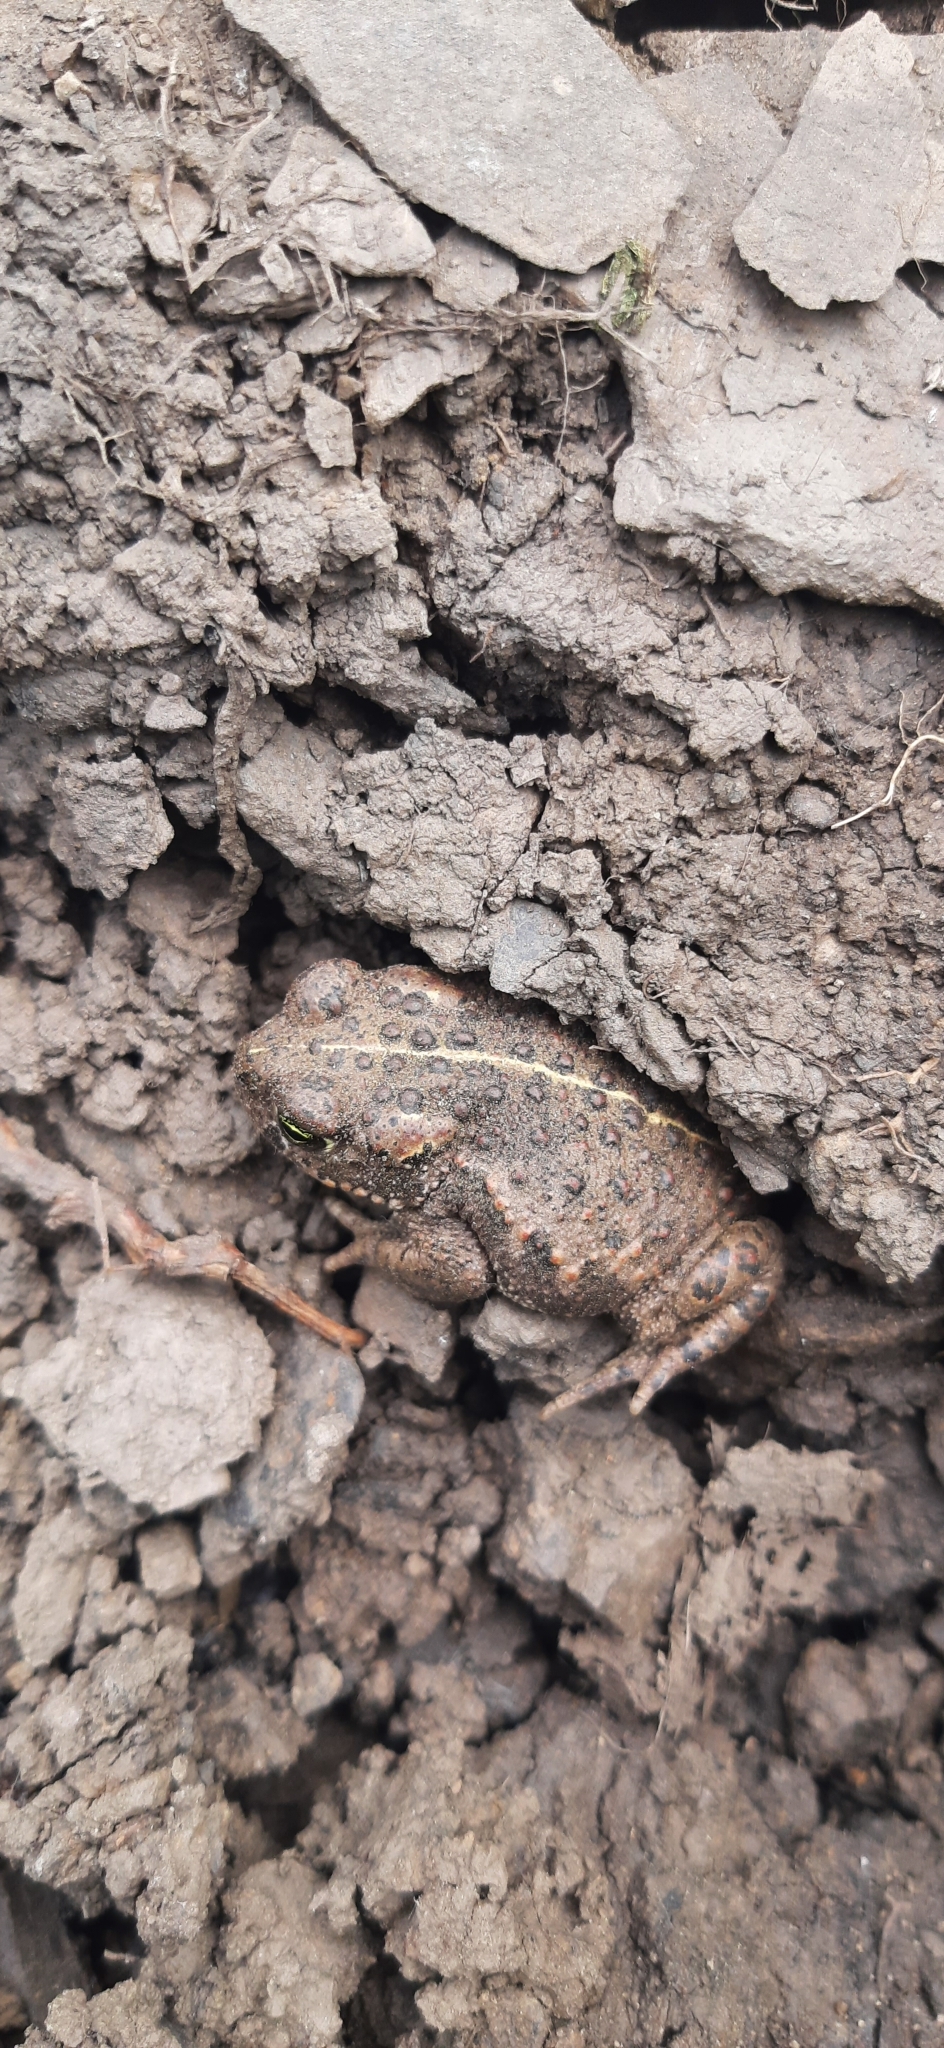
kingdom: Animalia
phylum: Chordata
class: Amphibia
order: Anura
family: Bufonidae
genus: Epidalea
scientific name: Epidalea calamita
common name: Natterjack toad
